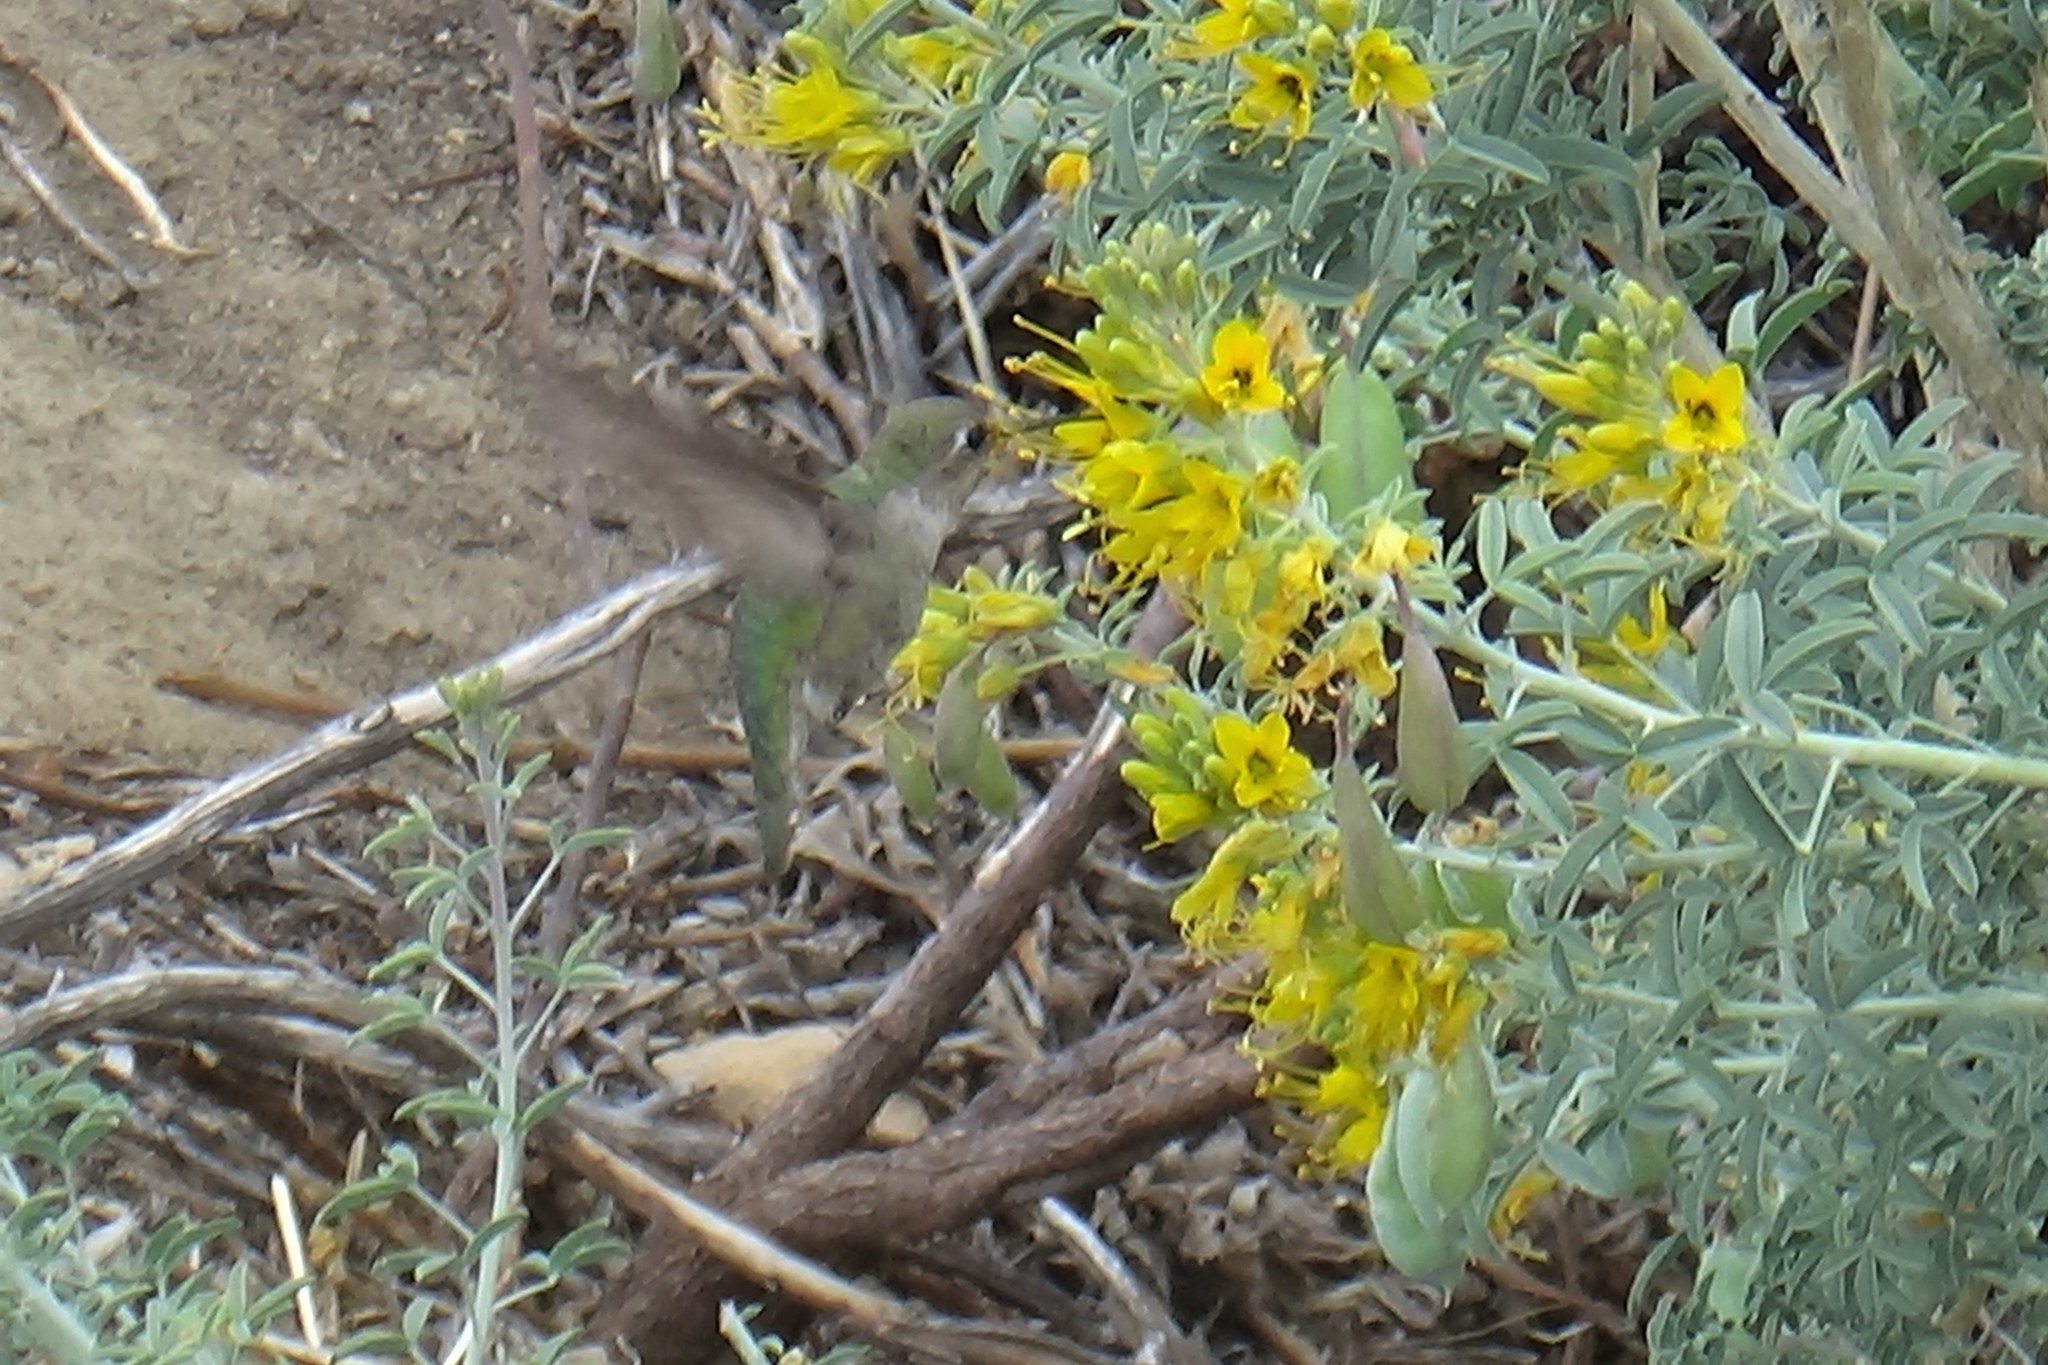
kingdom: Animalia
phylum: Chordata
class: Aves
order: Apodiformes
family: Trochilidae
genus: Calypte
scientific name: Calypte anna
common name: Anna's hummingbird
